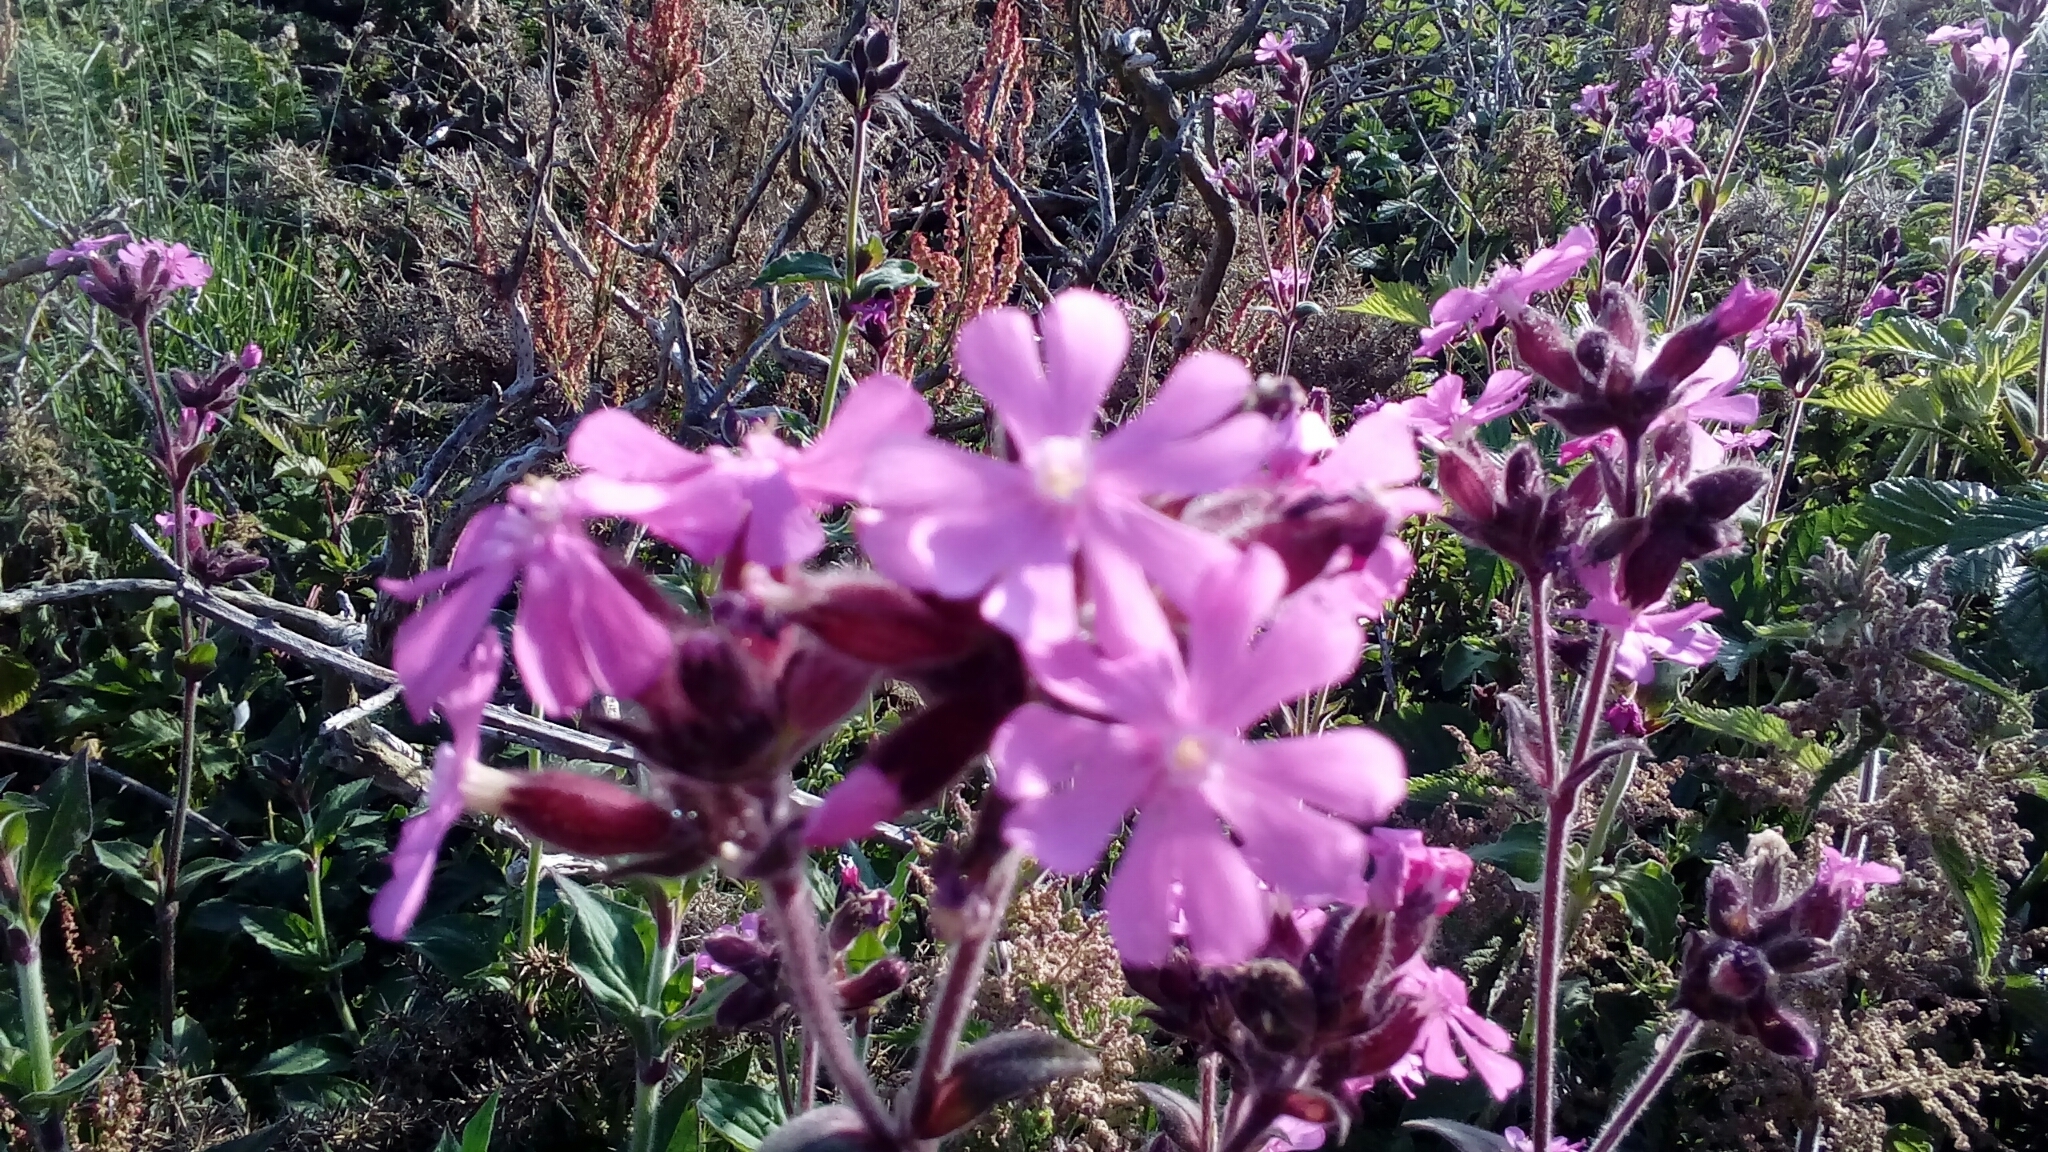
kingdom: Plantae
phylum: Tracheophyta
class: Magnoliopsida
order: Caryophyllales
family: Caryophyllaceae
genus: Silene
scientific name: Silene dioica
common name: Red campion
